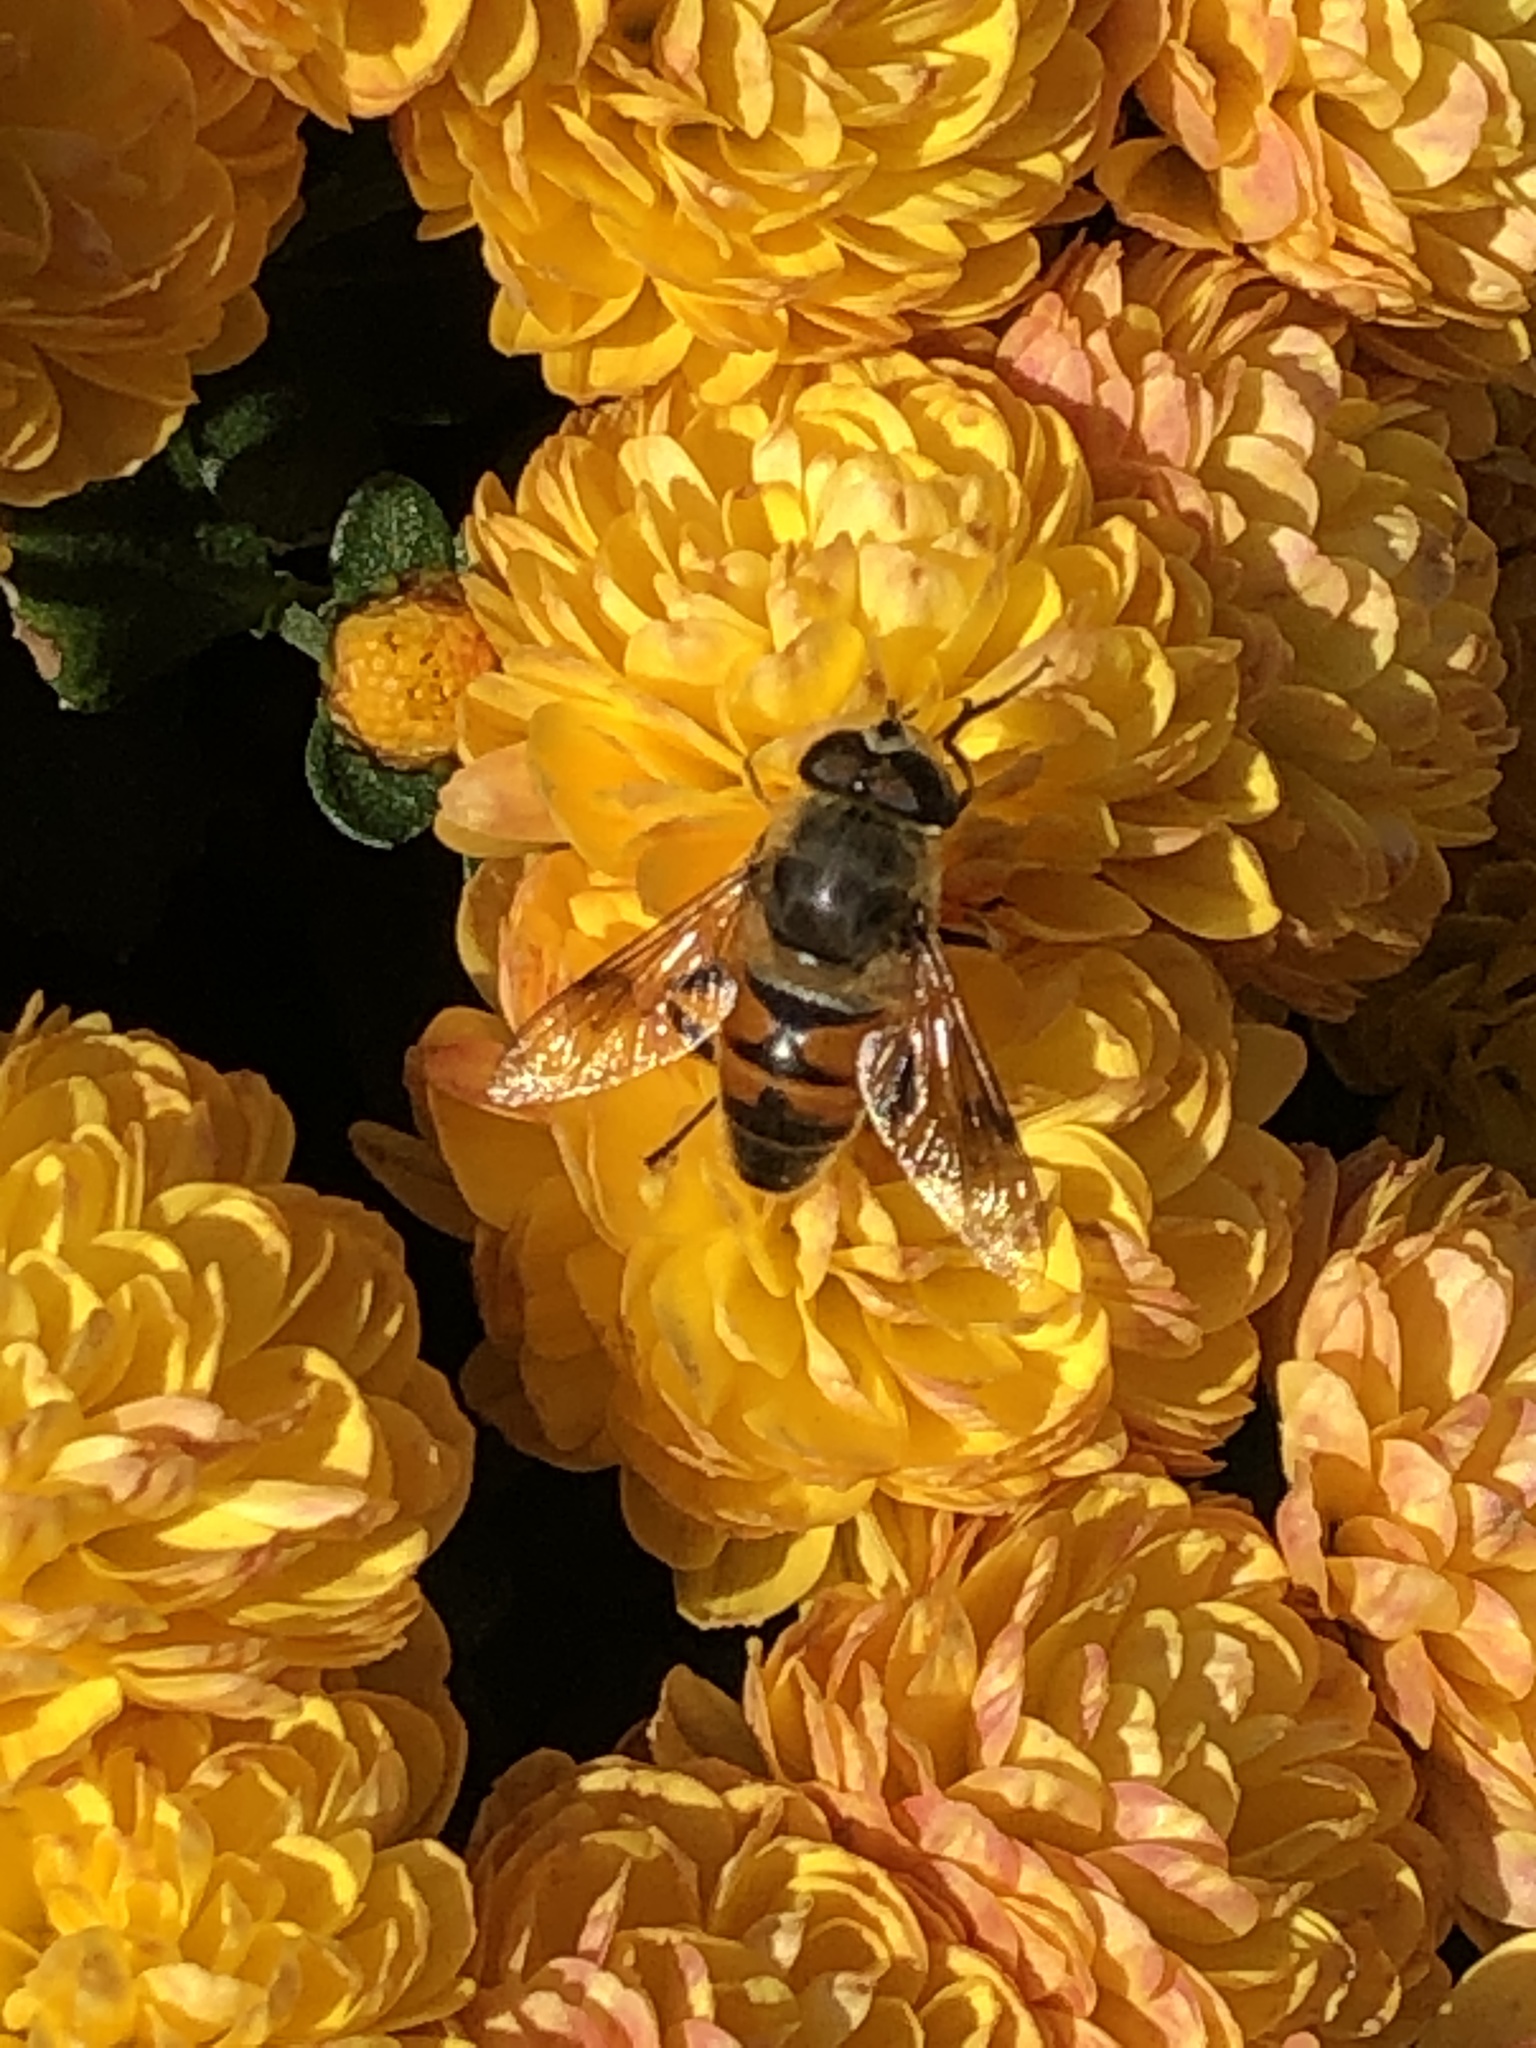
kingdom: Animalia
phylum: Arthropoda
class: Insecta
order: Diptera
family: Syrphidae
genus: Eristalis
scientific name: Eristalis tenax
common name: Drone fly
